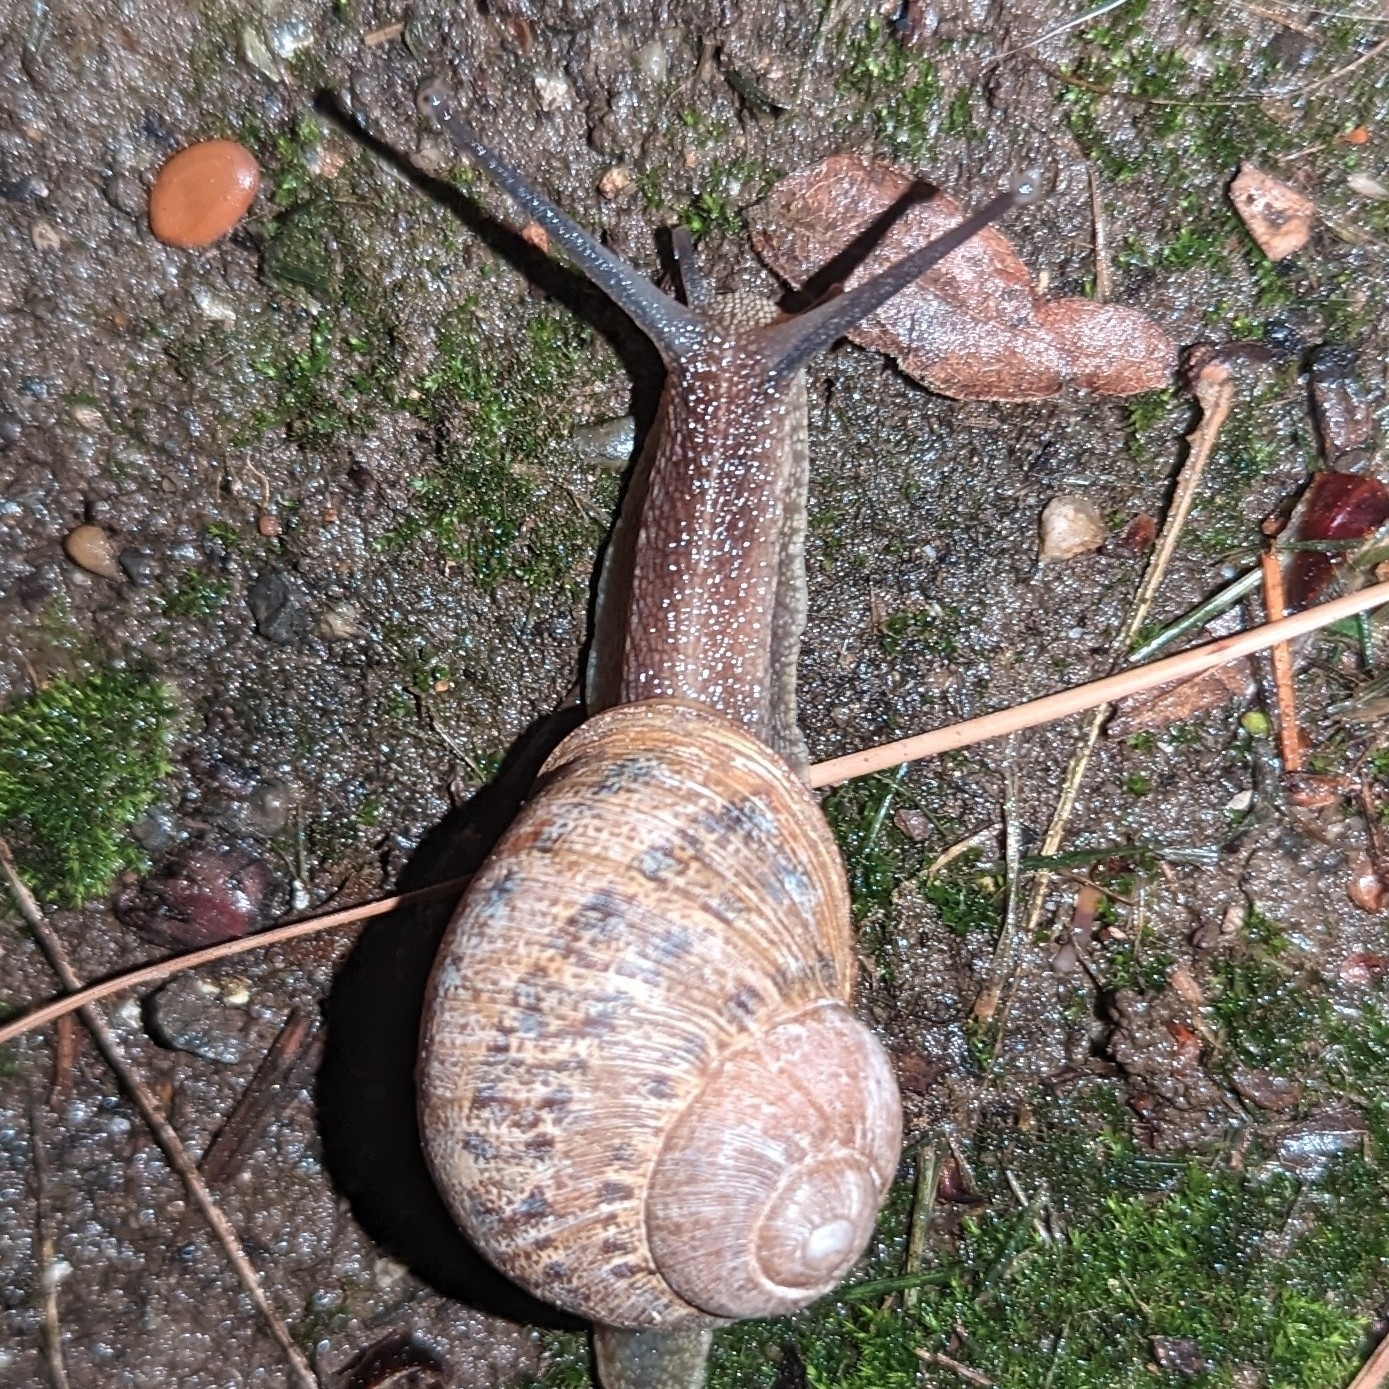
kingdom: Animalia
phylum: Mollusca
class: Gastropoda
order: Stylommatophora
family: Helicidae
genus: Cornu
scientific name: Cornu aspersum
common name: Brown garden snail
